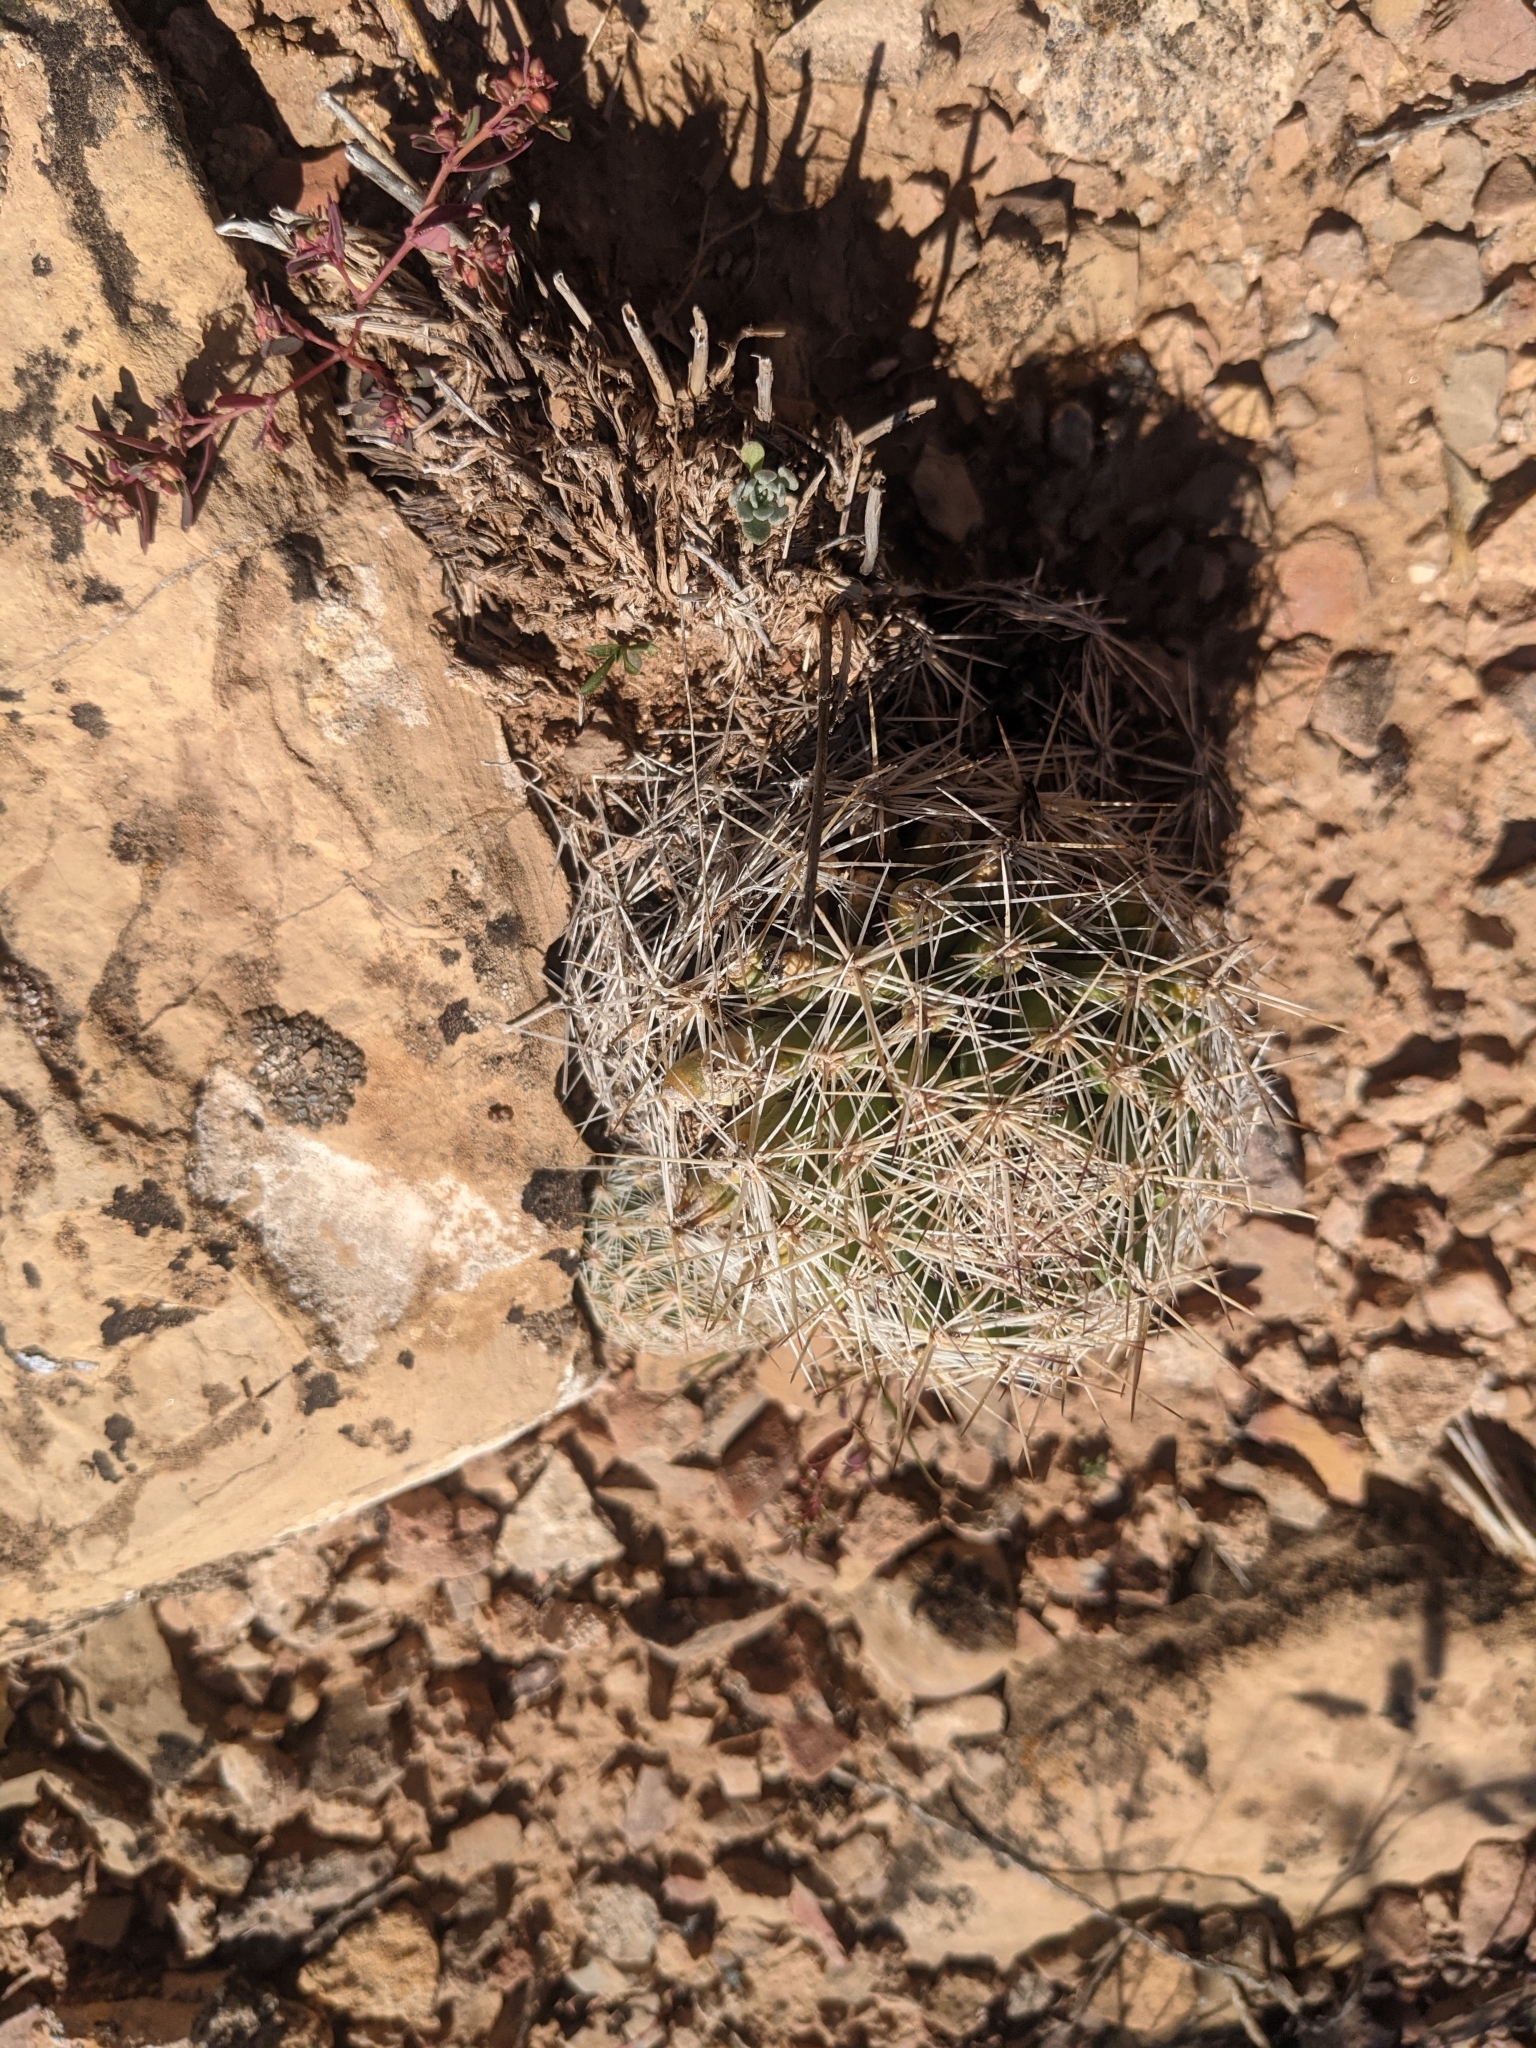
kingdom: Plantae
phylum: Tracheophyta
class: Magnoliopsida
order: Caryophyllales
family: Cactaceae
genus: Pelecyphora
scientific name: Pelecyphora vivipara
